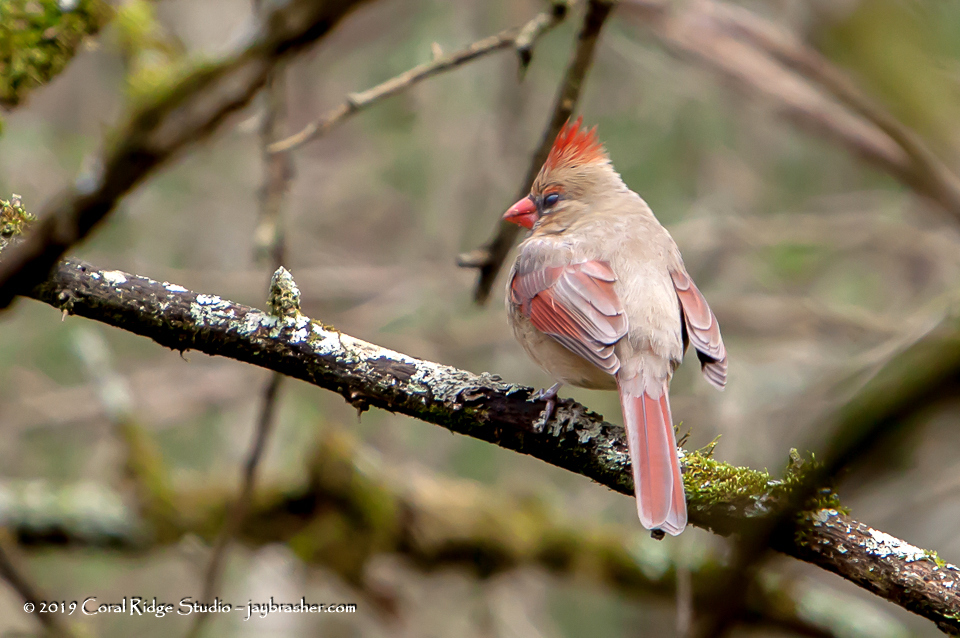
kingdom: Animalia
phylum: Chordata
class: Aves
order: Passeriformes
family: Cardinalidae
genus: Cardinalis
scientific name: Cardinalis cardinalis
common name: Northern cardinal
